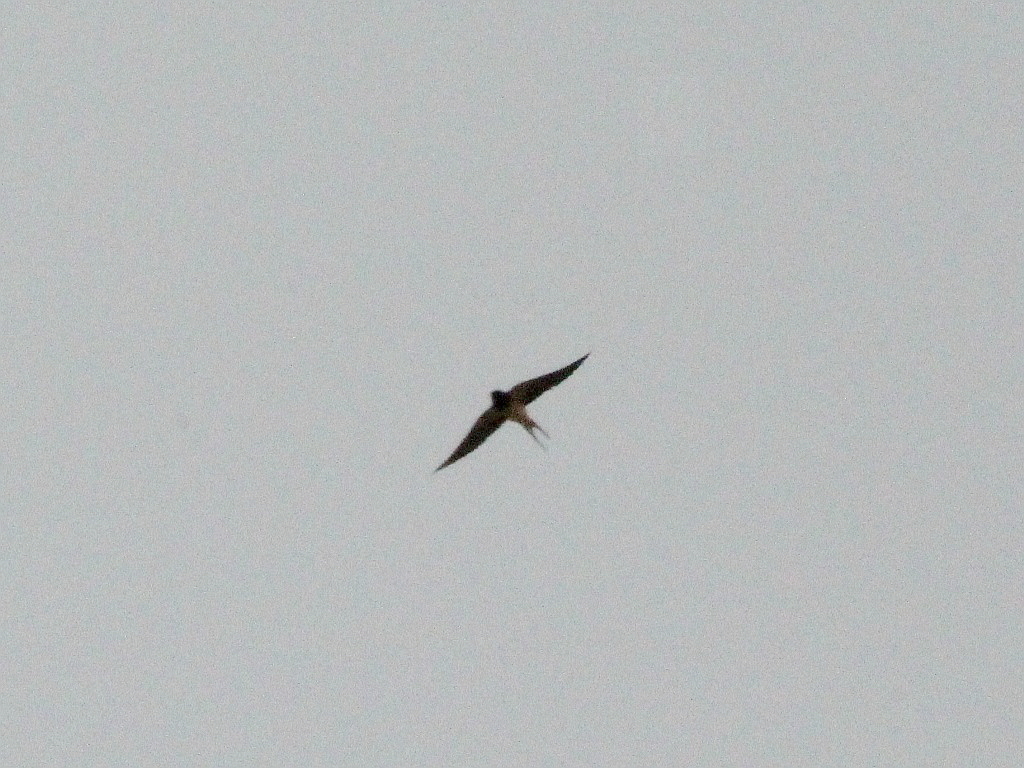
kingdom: Animalia
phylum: Chordata
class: Aves
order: Passeriformes
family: Hirundinidae
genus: Hirundo
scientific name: Hirundo rustica
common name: Barn swallow
